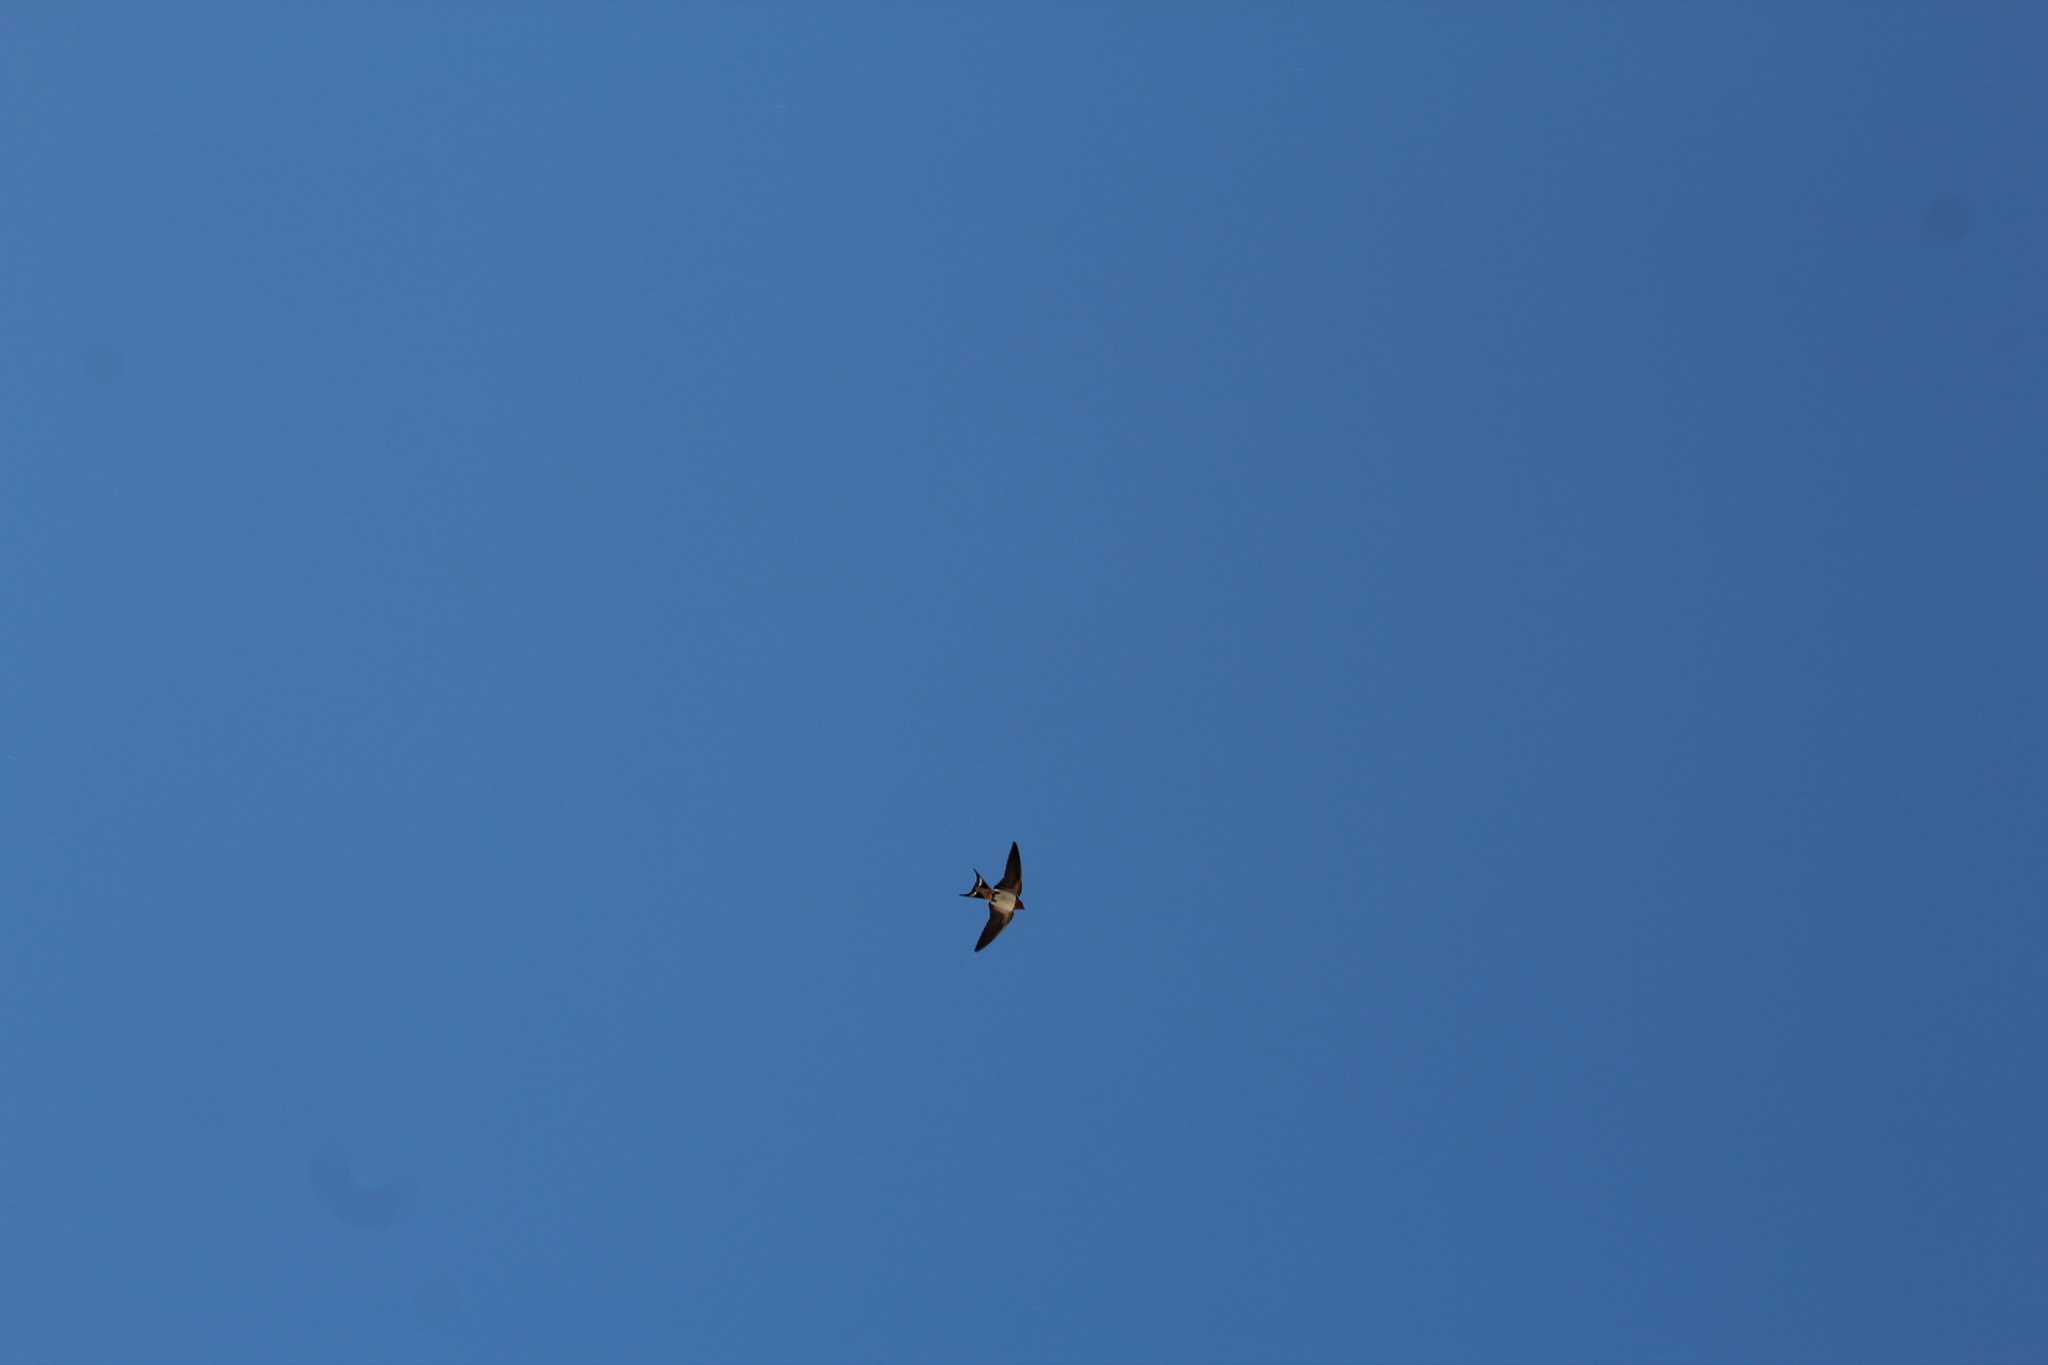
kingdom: Animalia
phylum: Chordata
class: Aves
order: Passeriformes
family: Hirundinidae
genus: Hirundo
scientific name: Hirundo rustica
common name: Barn swallow
